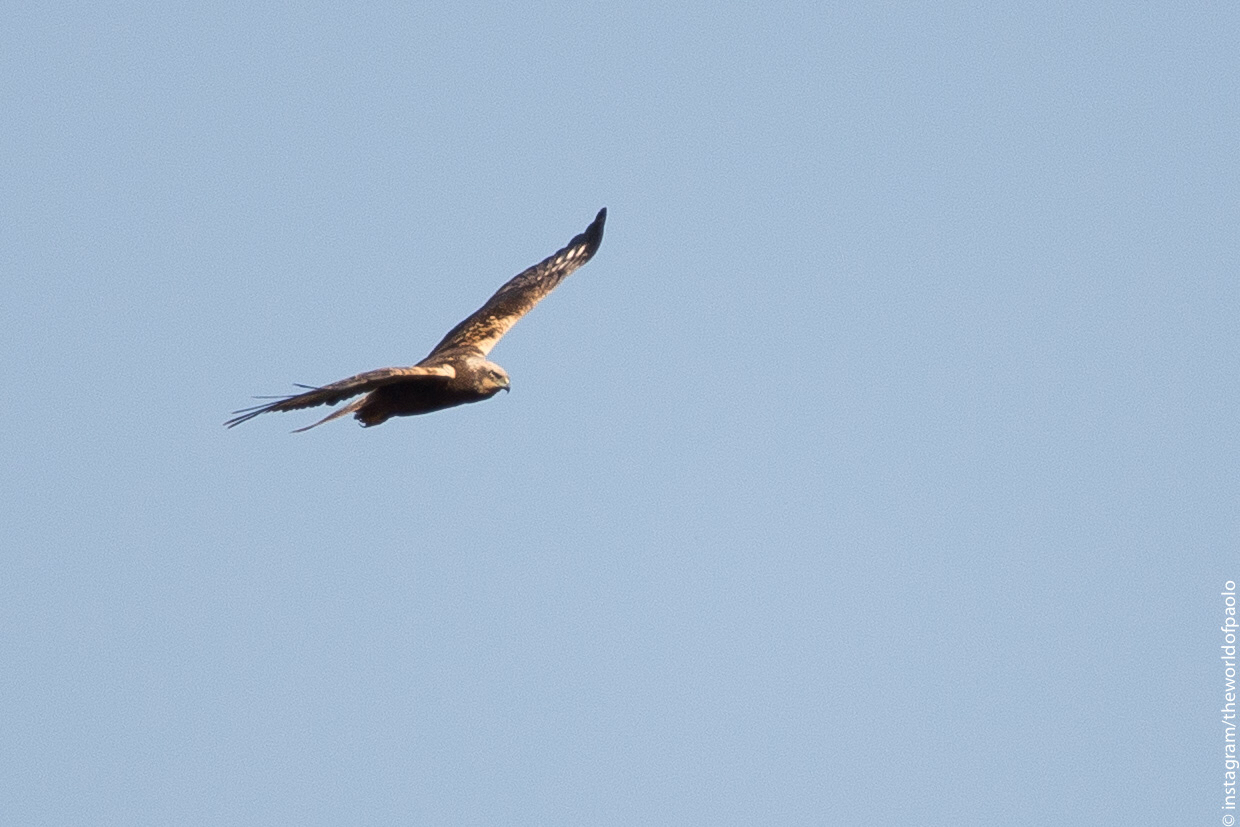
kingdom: Animalia
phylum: Chordata
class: Aves
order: Accipitriformes
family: Accipitridae
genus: Circus
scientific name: Circus aeruginosus
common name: Western marsh harrier
